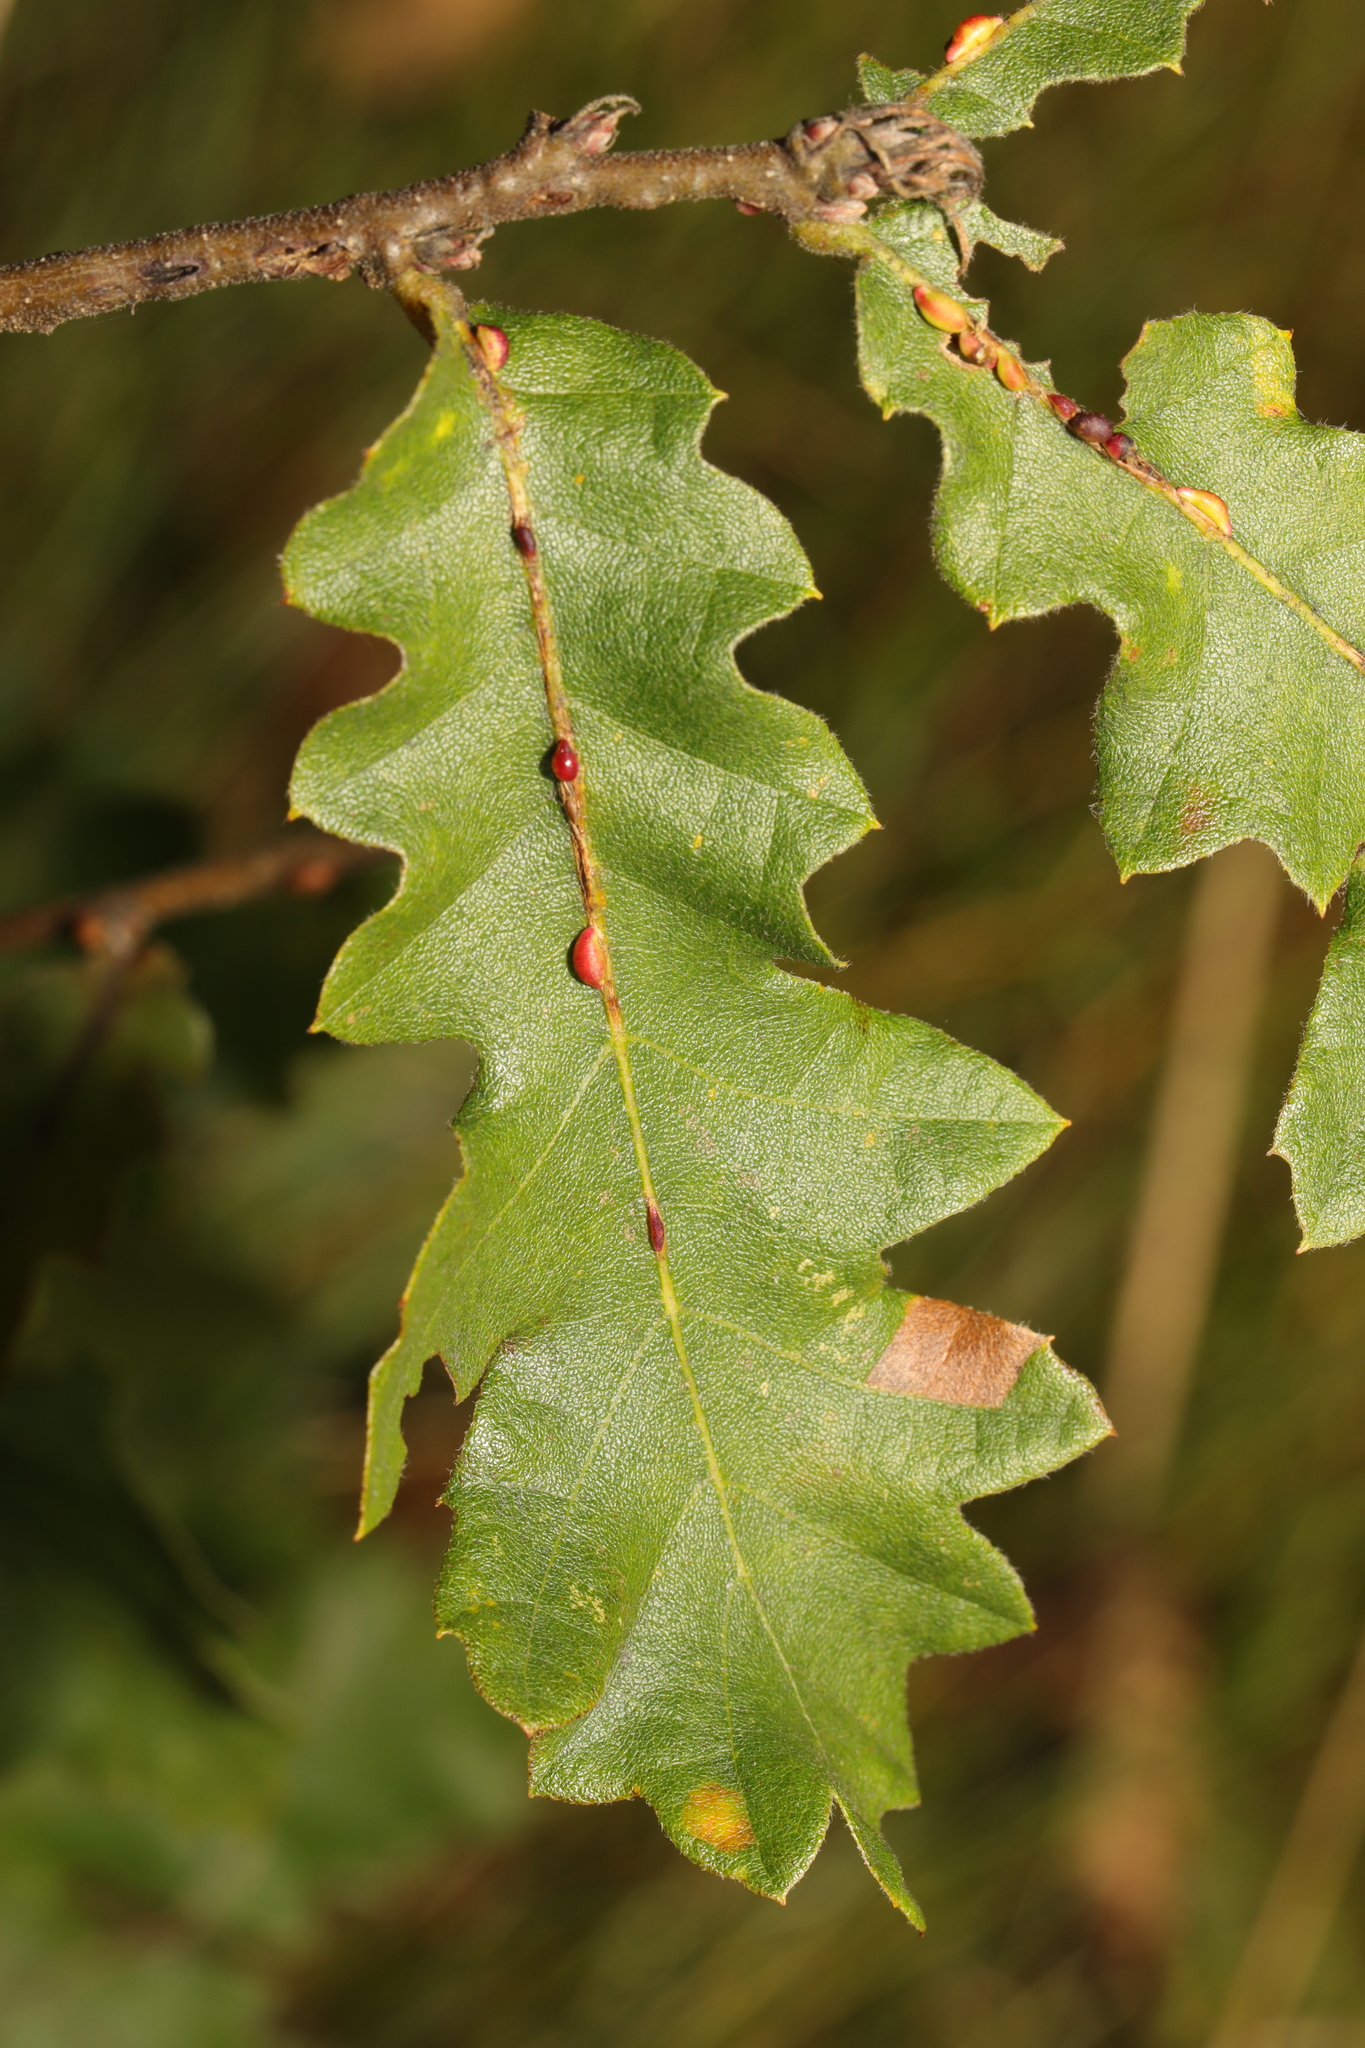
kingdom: Plantae
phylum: Tracheophyta
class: Magnoliopsida
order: Fagales
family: Fagaceae
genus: Quercus
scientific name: Quercus cerris
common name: Turkey oak
